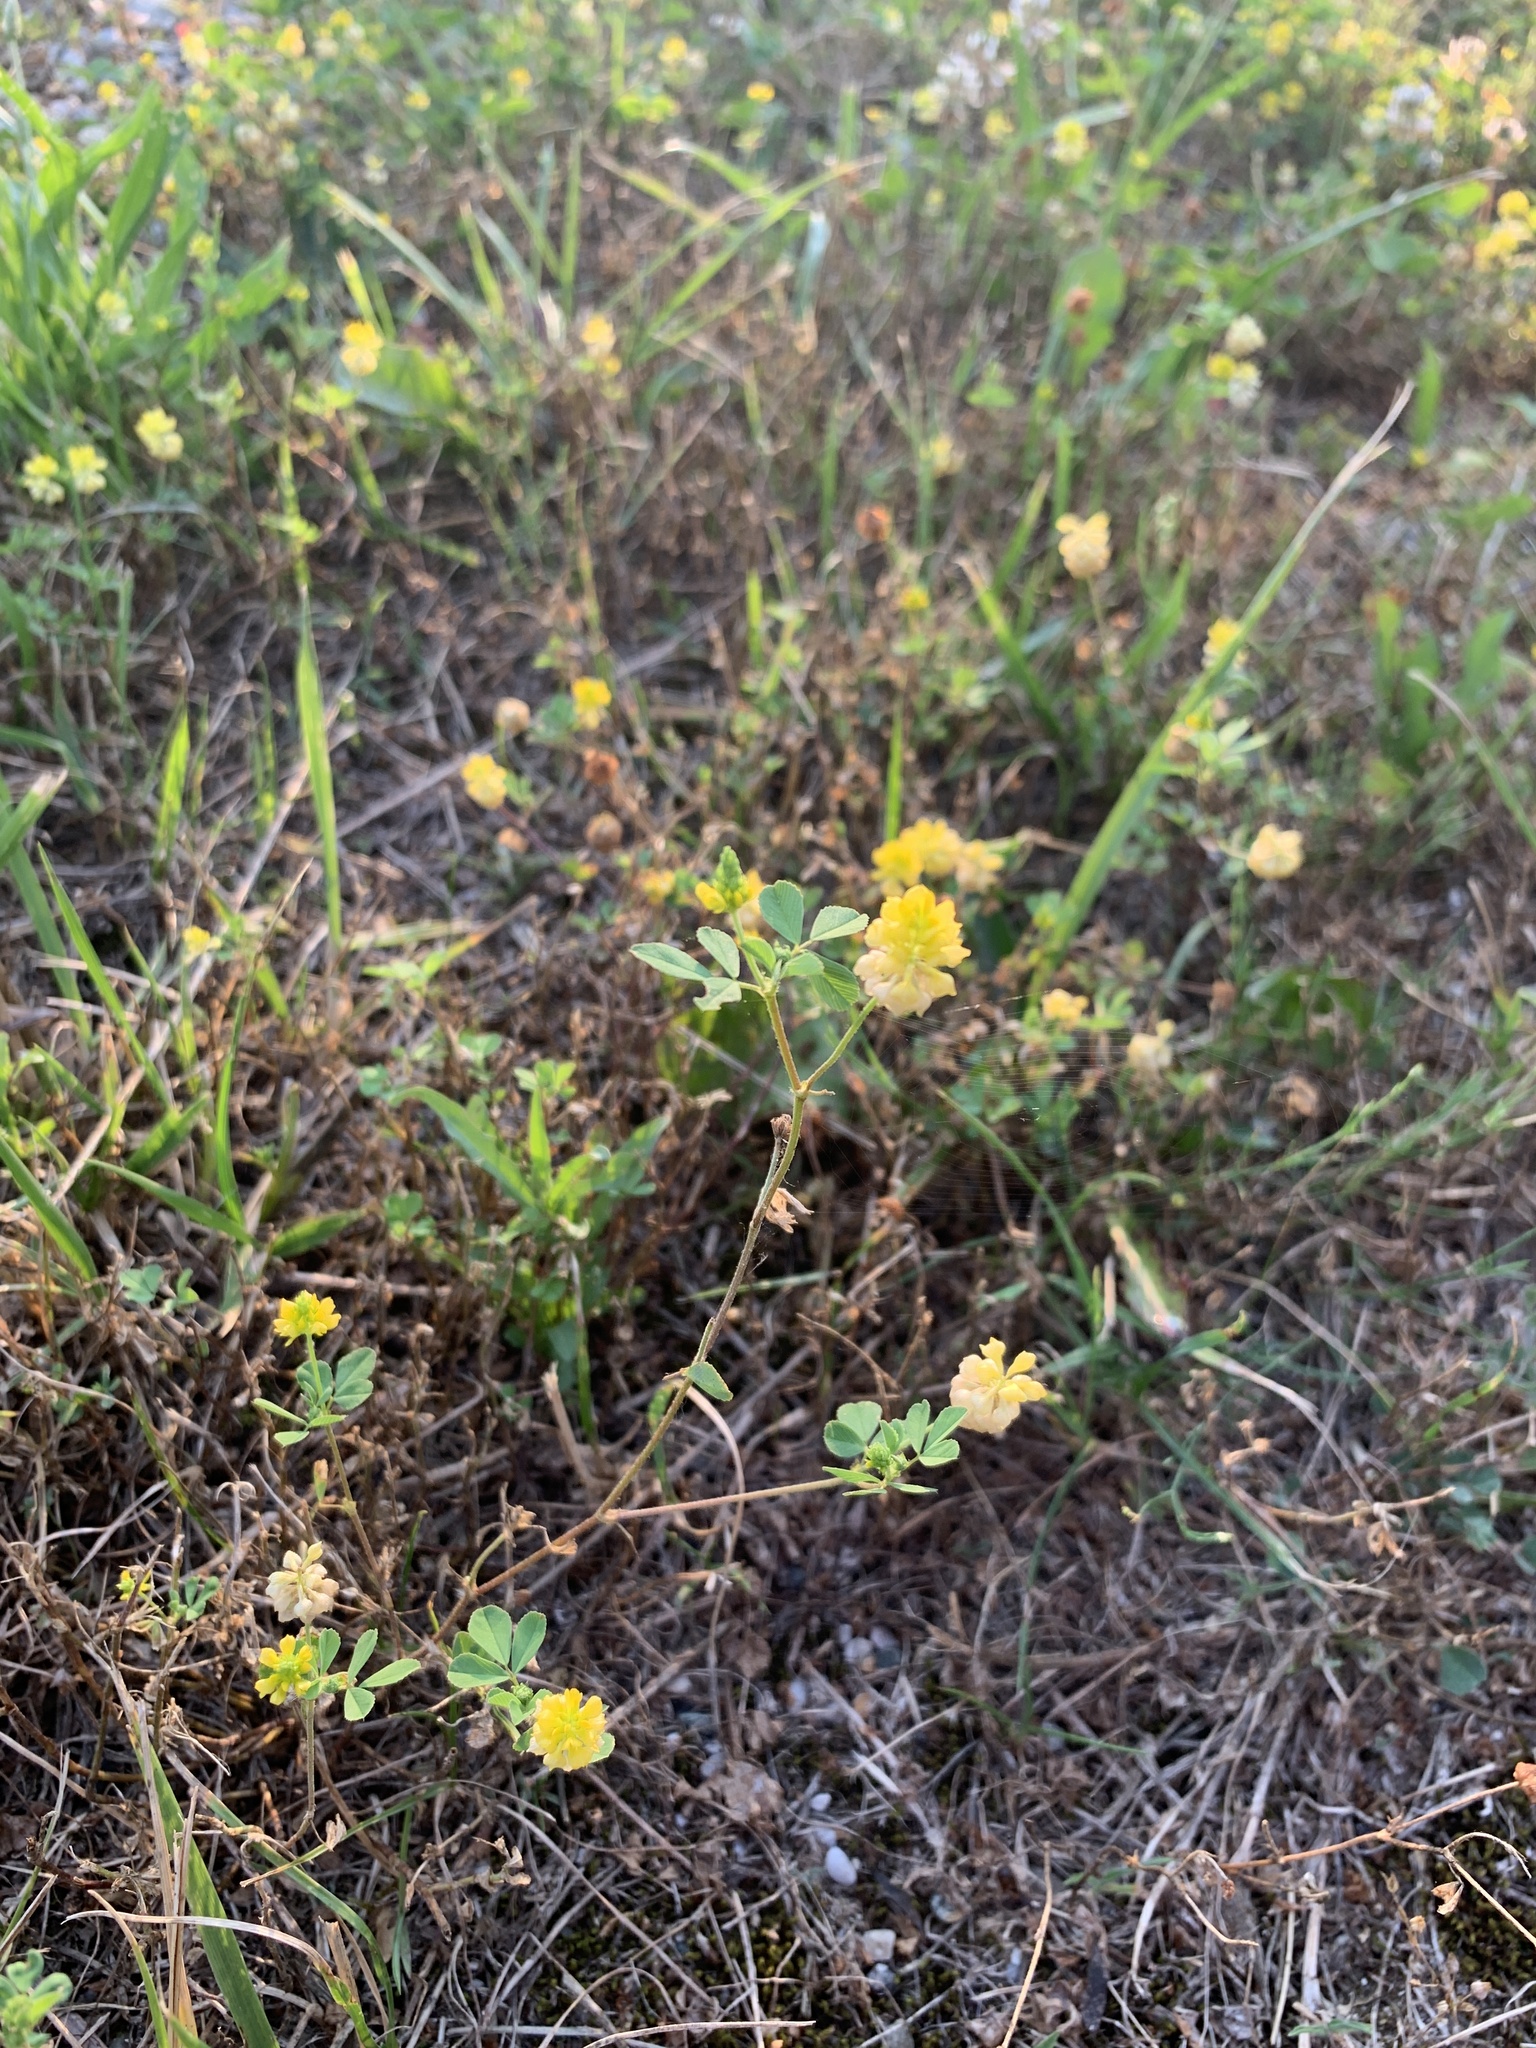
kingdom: Plantae
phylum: Tracheophyta
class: Magnoliopsida
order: Fabales
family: Fabaceae
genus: Trifolium
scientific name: Trifolium campestre
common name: Field clover
